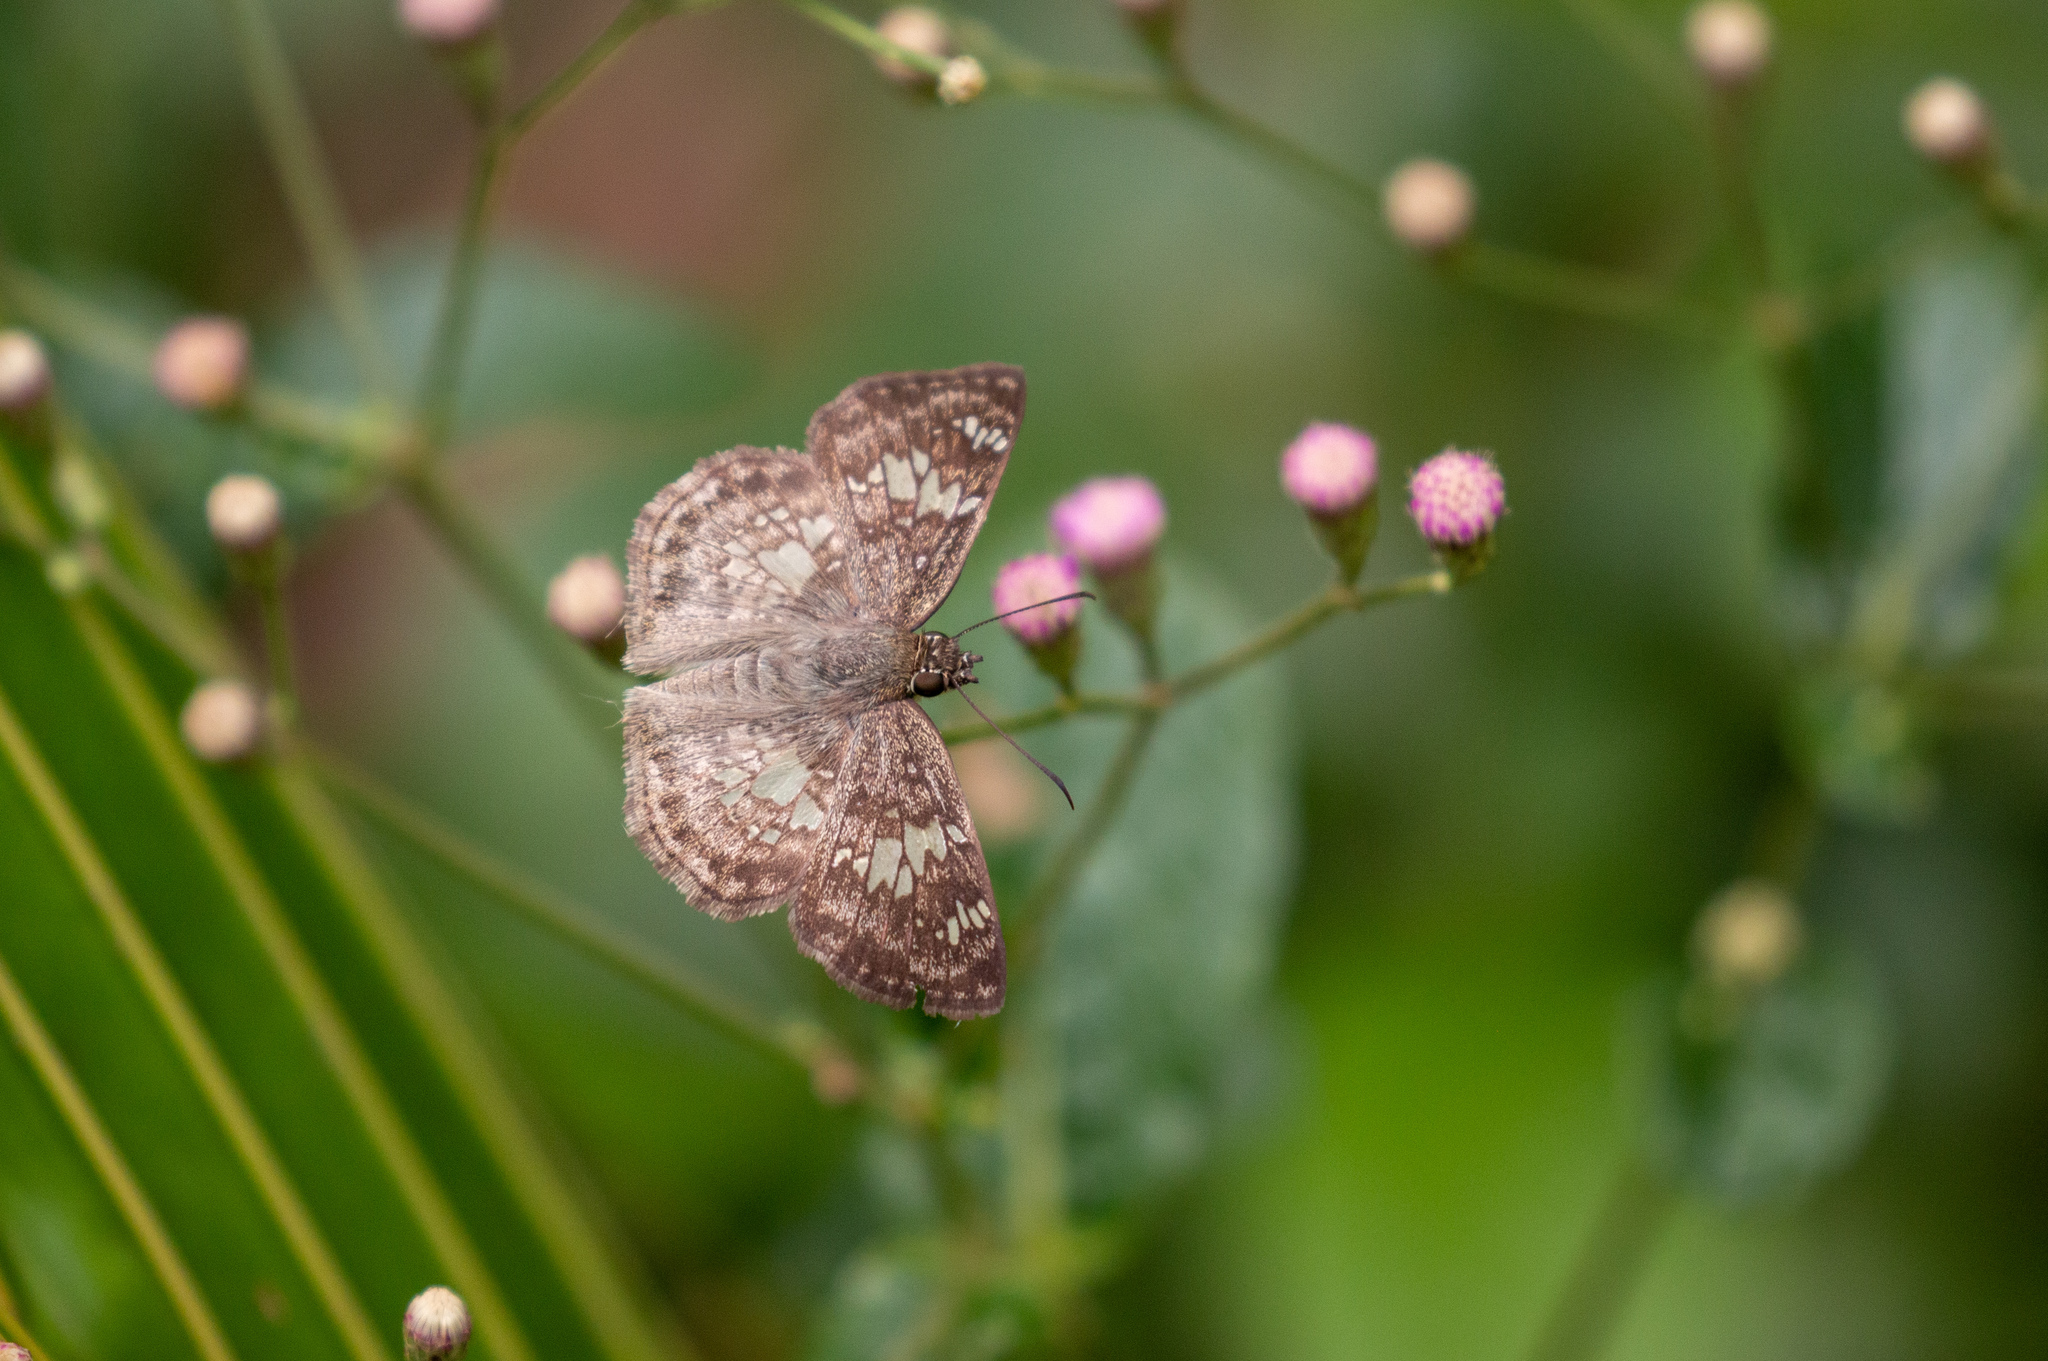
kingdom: Animalia
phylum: Arthropoda
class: Insecta
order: Lepidoptera
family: Hesperiidae
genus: Xenophanes
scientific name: Xenophanes tryxus
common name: Glassy-winged skipper
